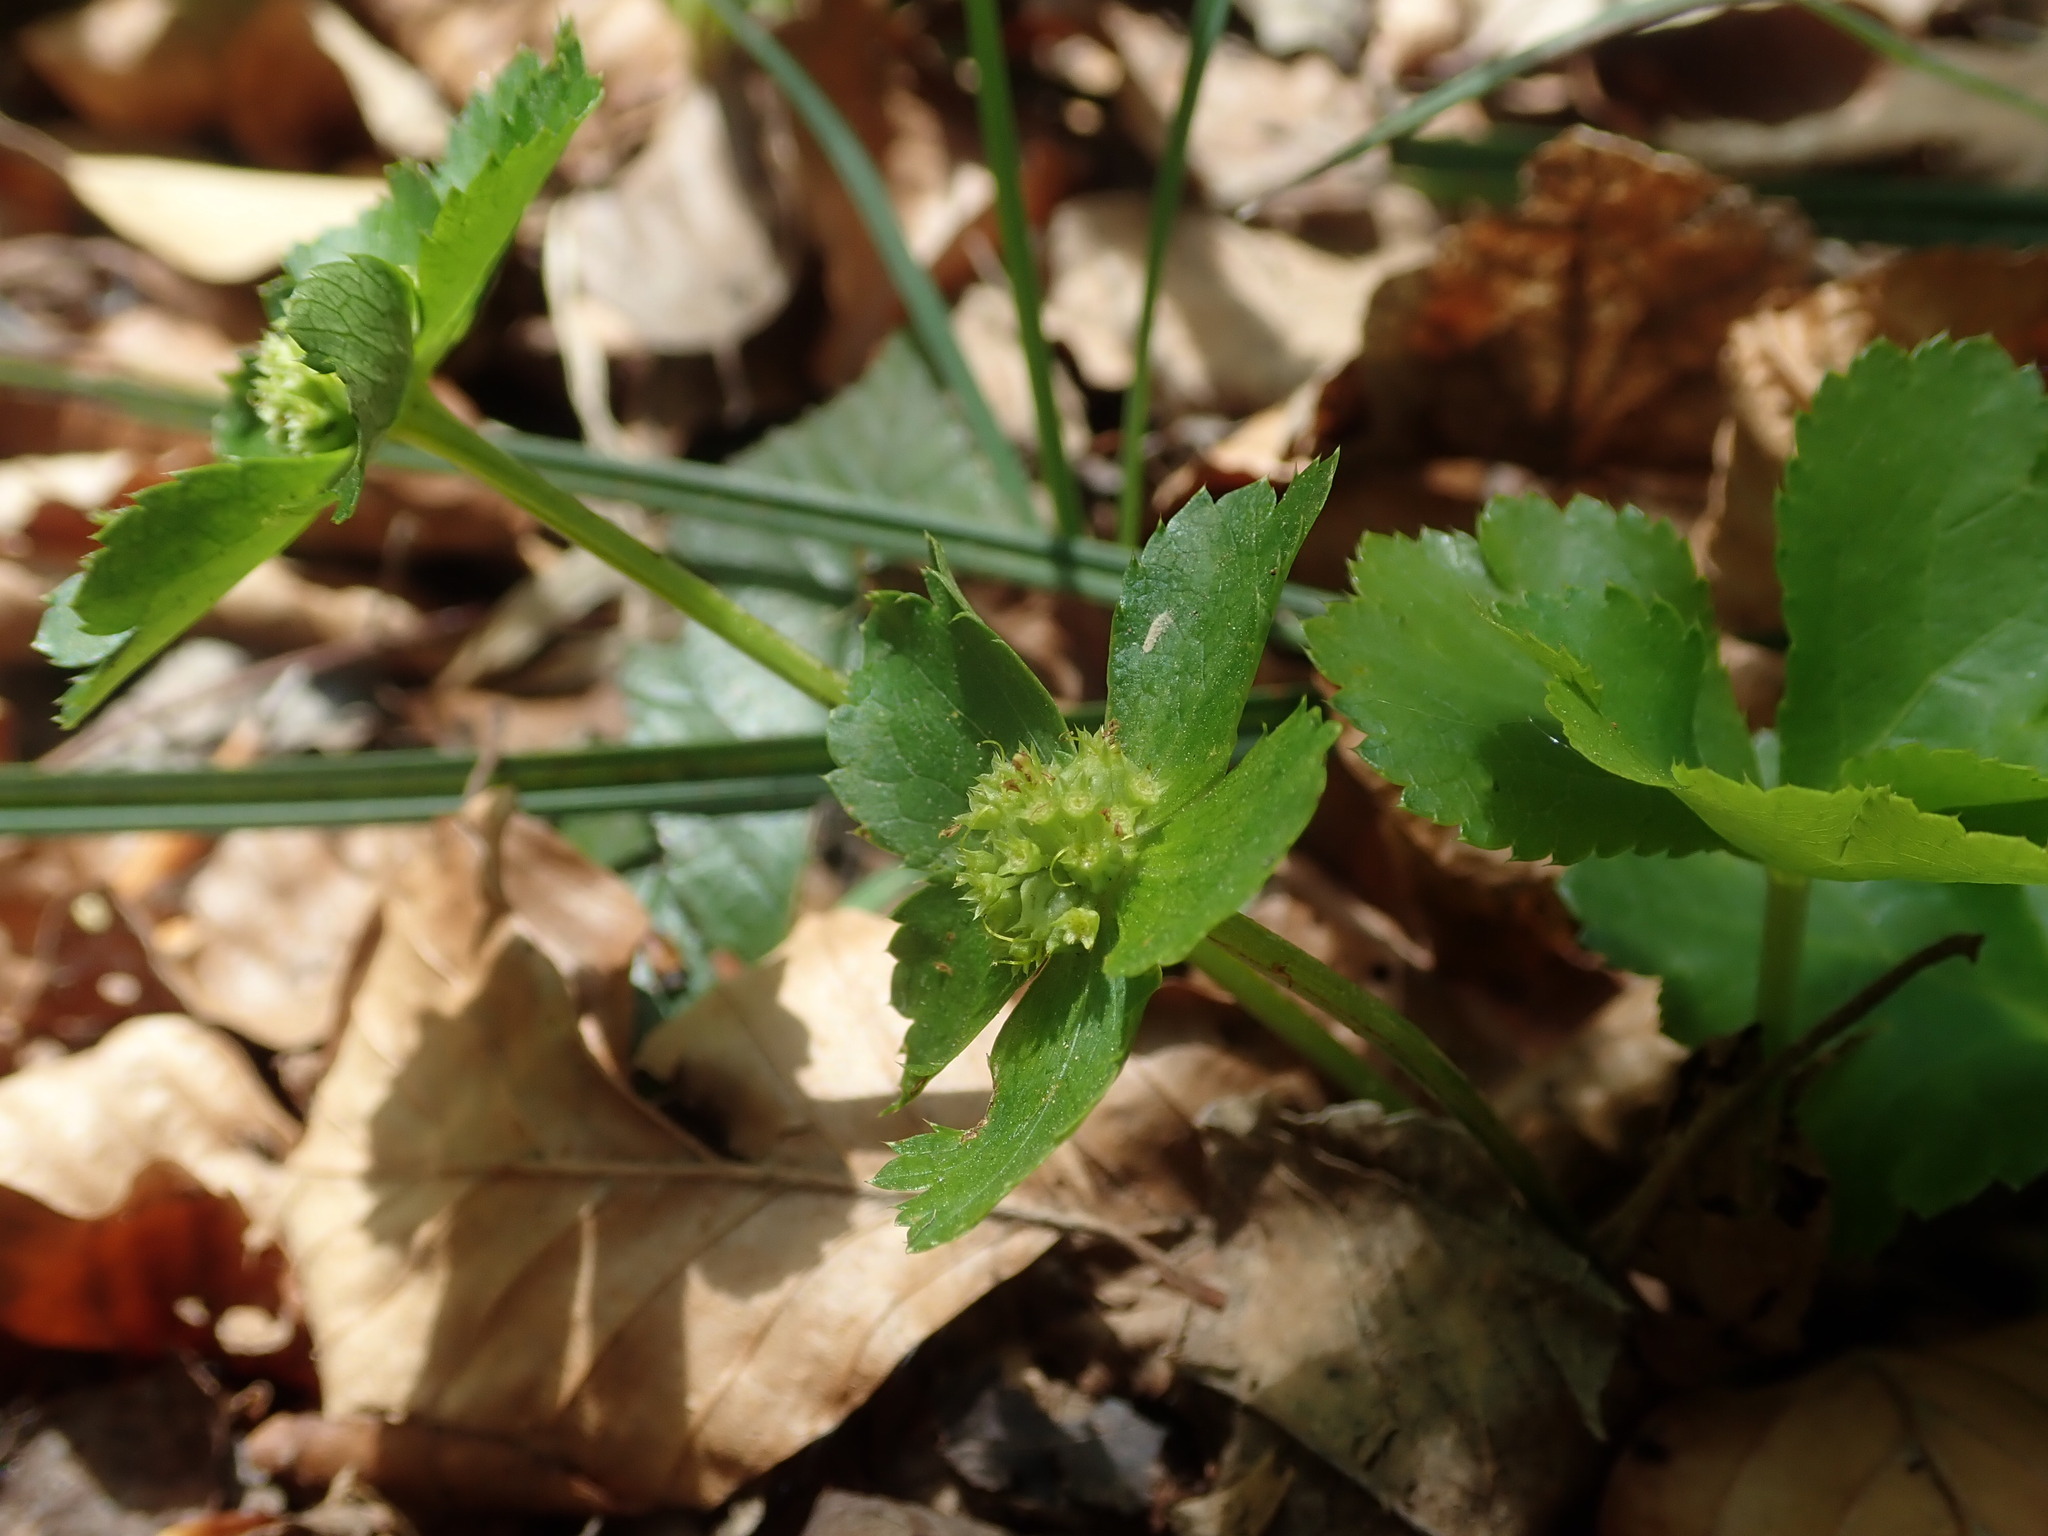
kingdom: Plantae
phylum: Tracheophyta
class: Magnoliopsida
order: Apiales
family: Apiaceae
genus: Sanicula
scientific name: Sanicula epipactis
